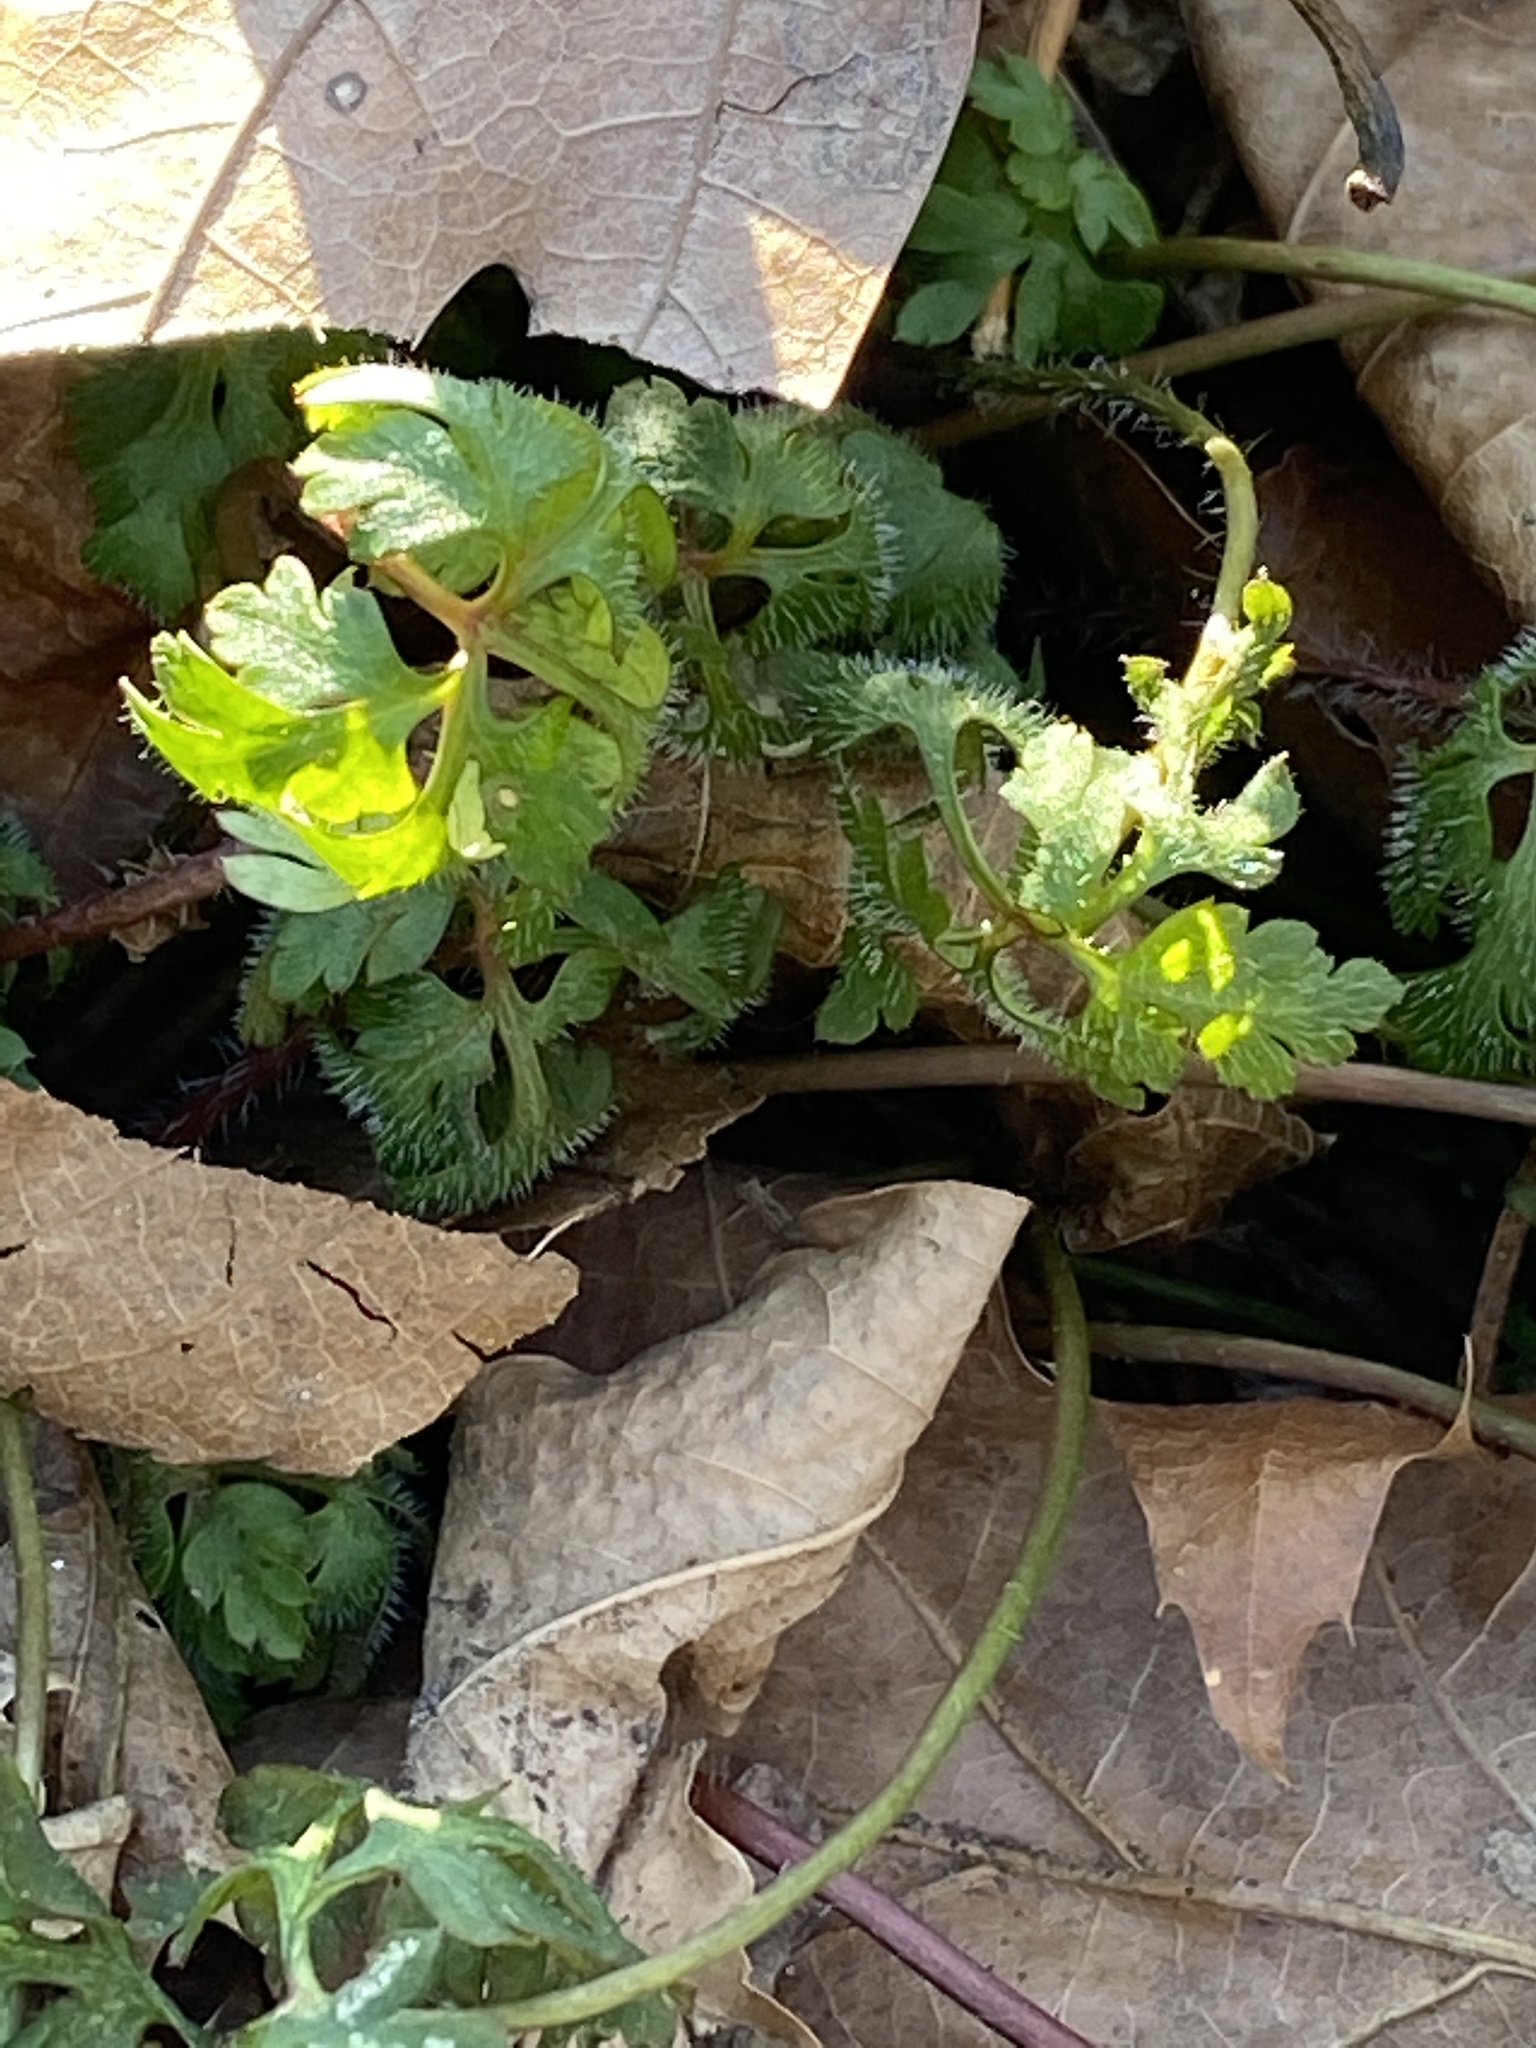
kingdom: Plantae
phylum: Tracheophyta
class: Magnoliopsida
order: Geraniales
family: Geraniaceae
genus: Geranium
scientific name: Geranium robertianum
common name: Herb-robert
